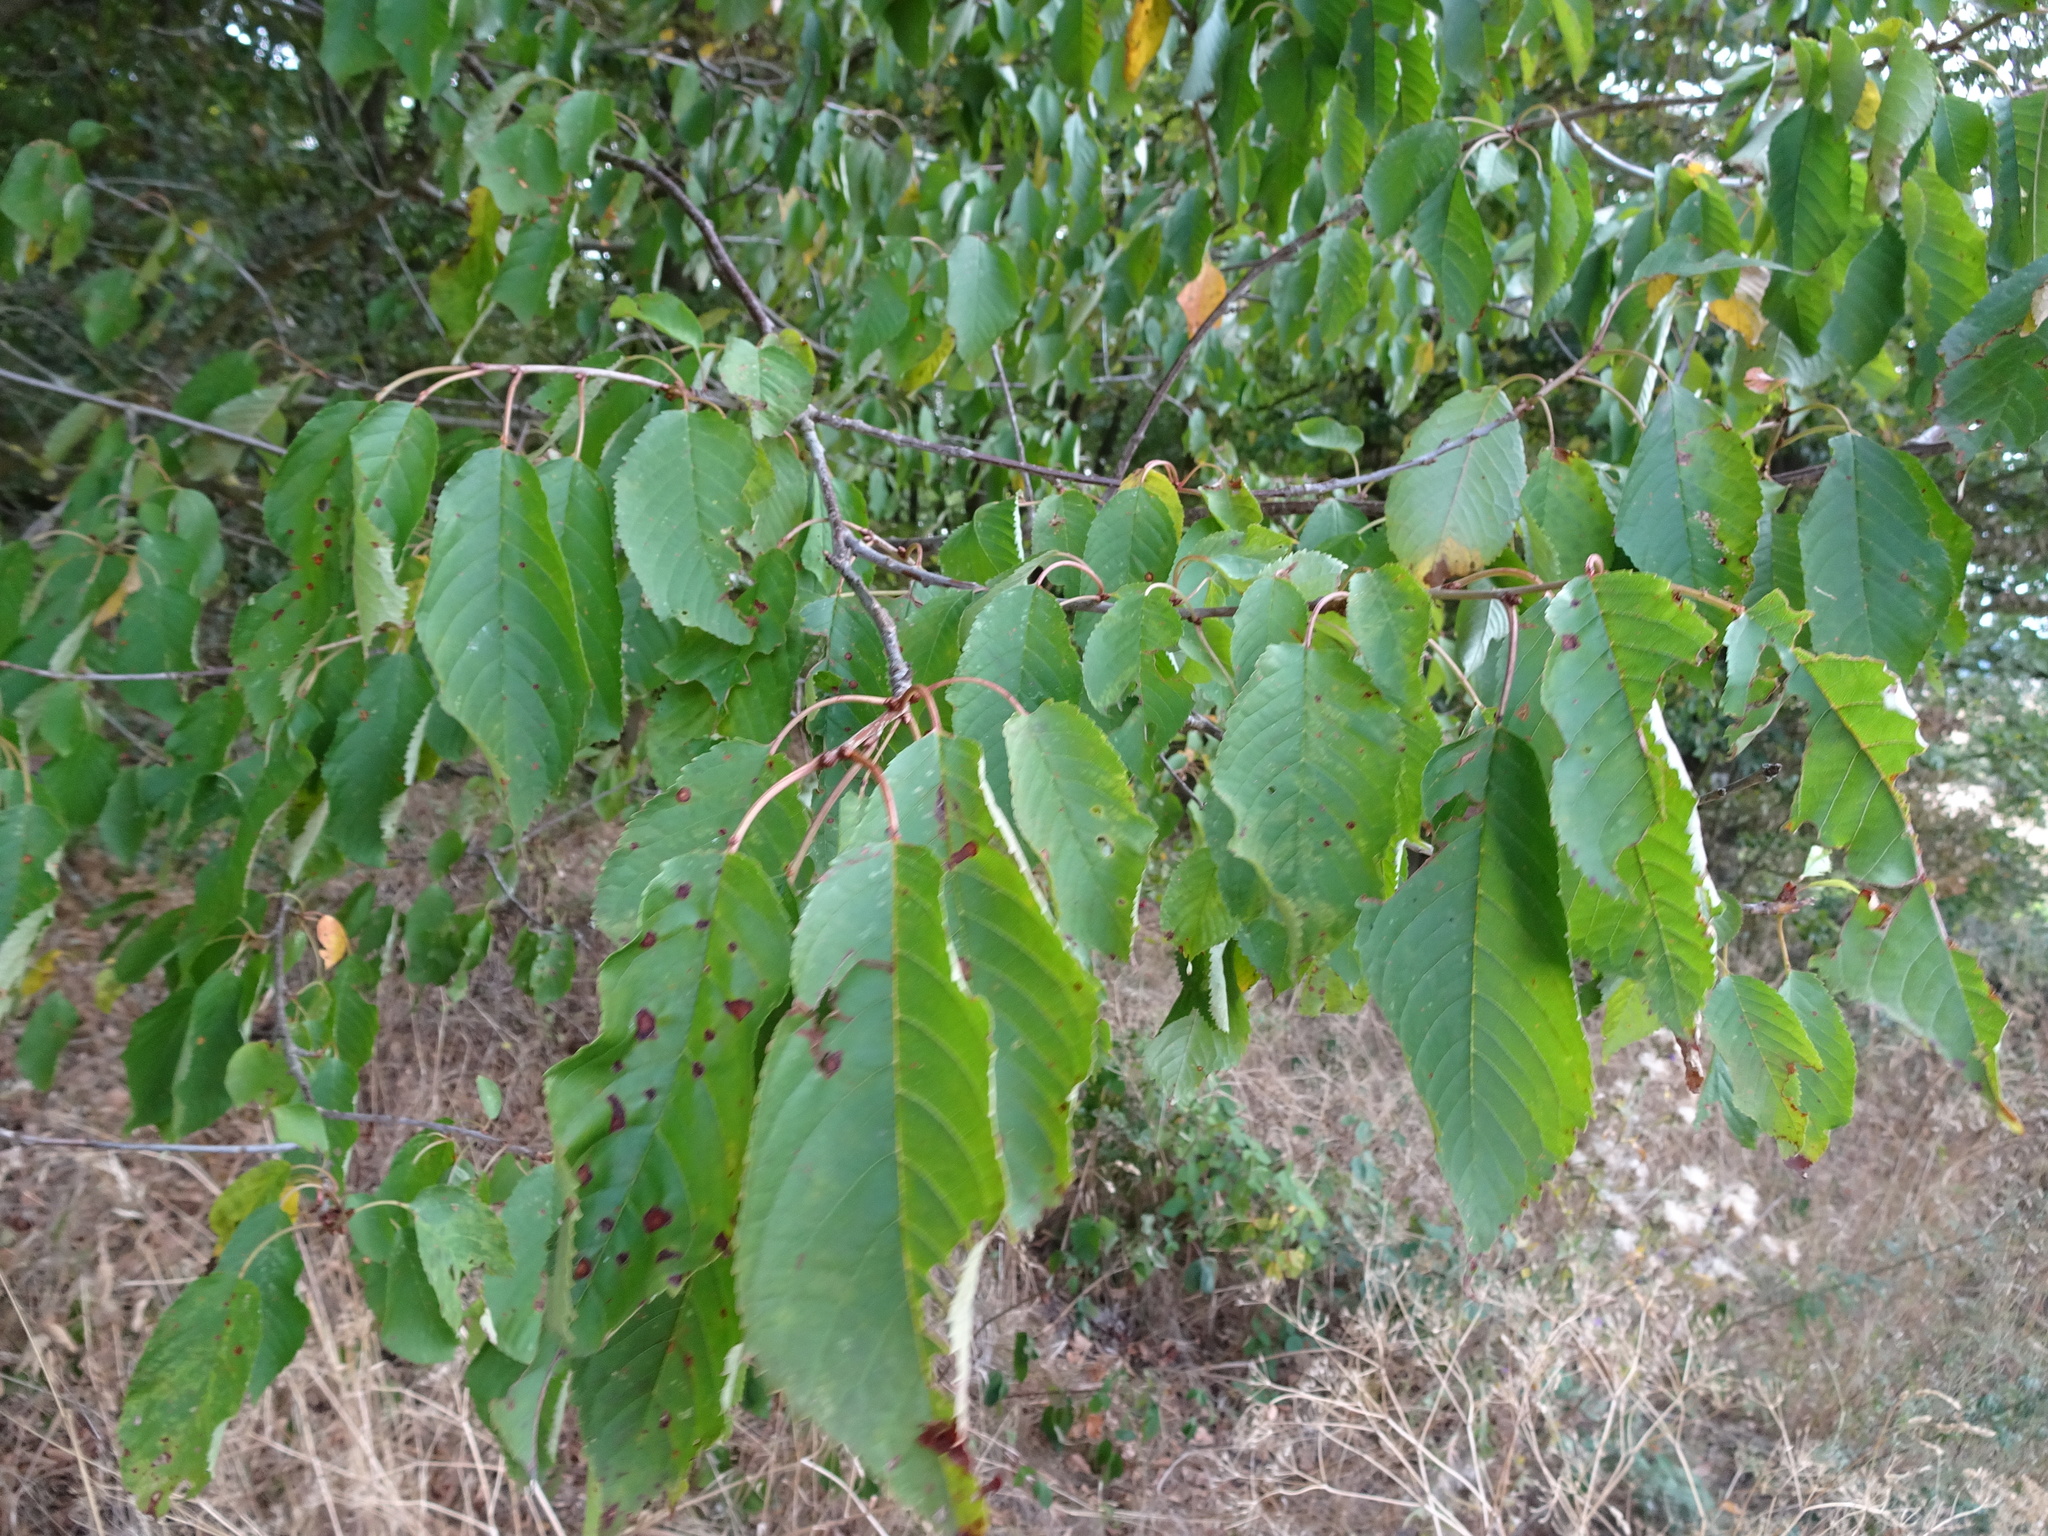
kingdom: Plantae
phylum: Tracheophyta
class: Magnoliopsida
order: Rosales
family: Rosaceae
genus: Prunus
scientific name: Prunus avium
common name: Sweet cherry
